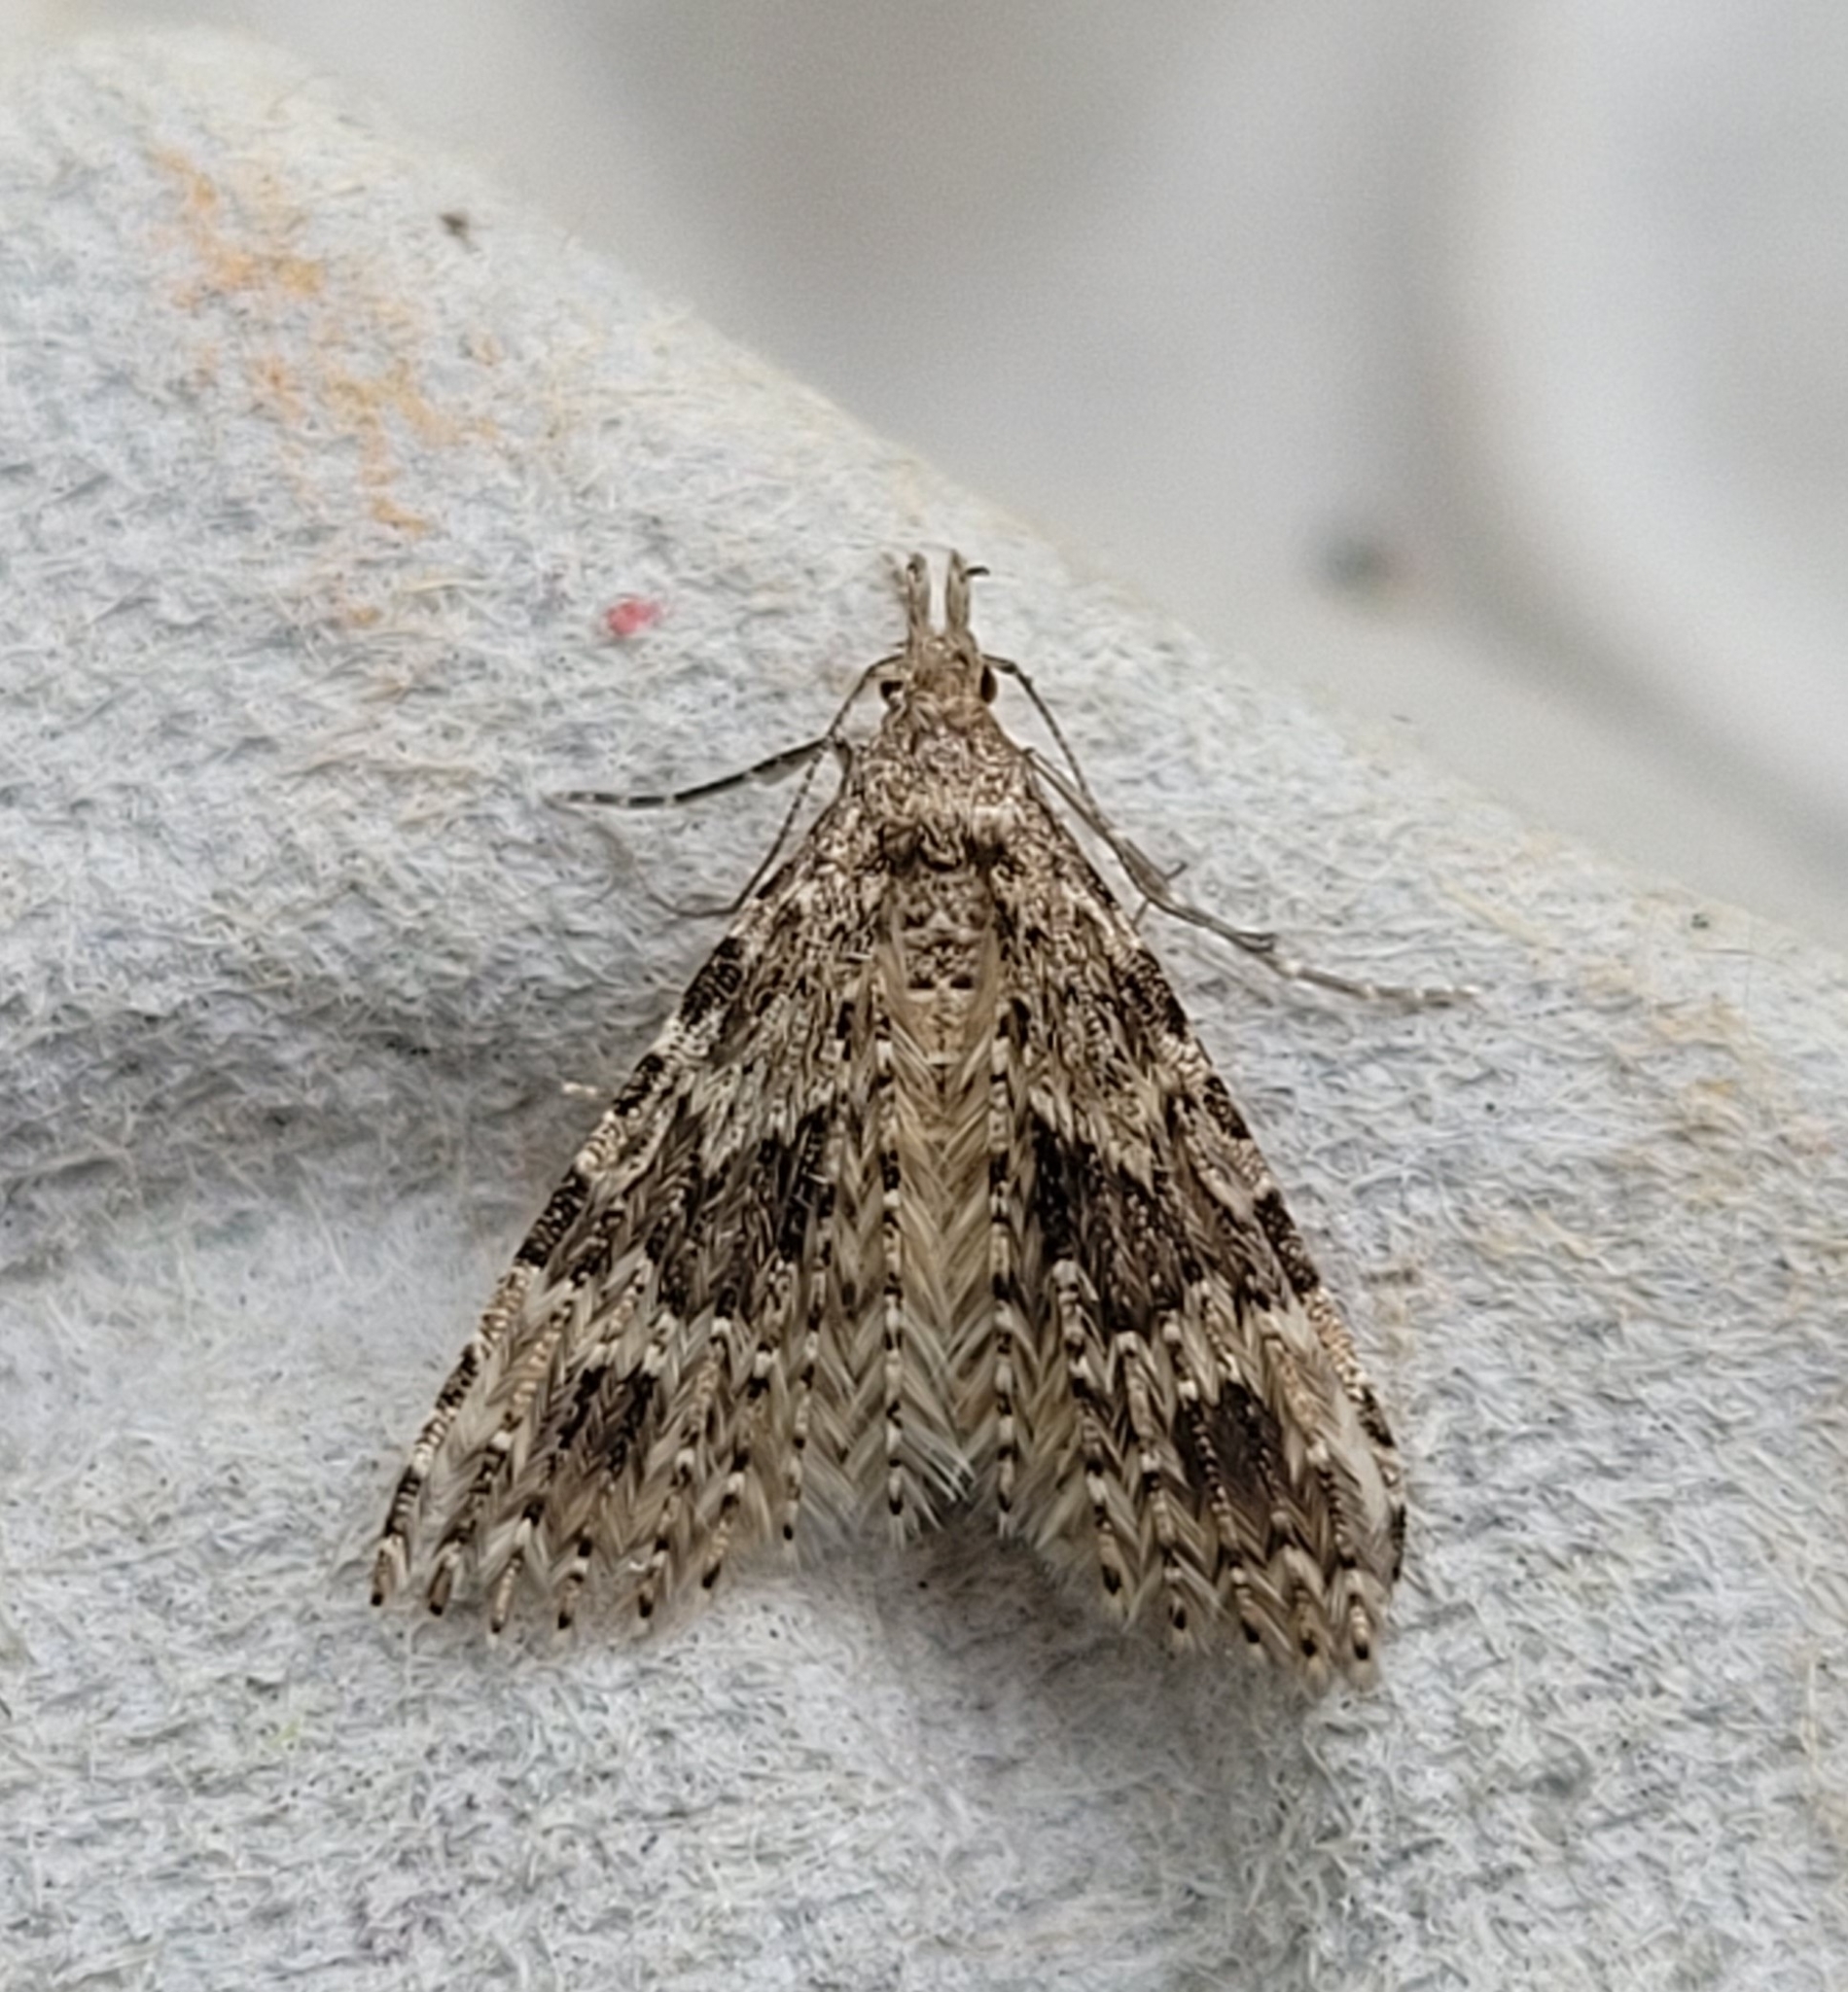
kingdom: Animalia
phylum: Arthropoda
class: Insecta
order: Lepidoptera
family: Alucitidae
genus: Alucita
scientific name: Alucita hexadactyla
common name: Twenty-plume moth
